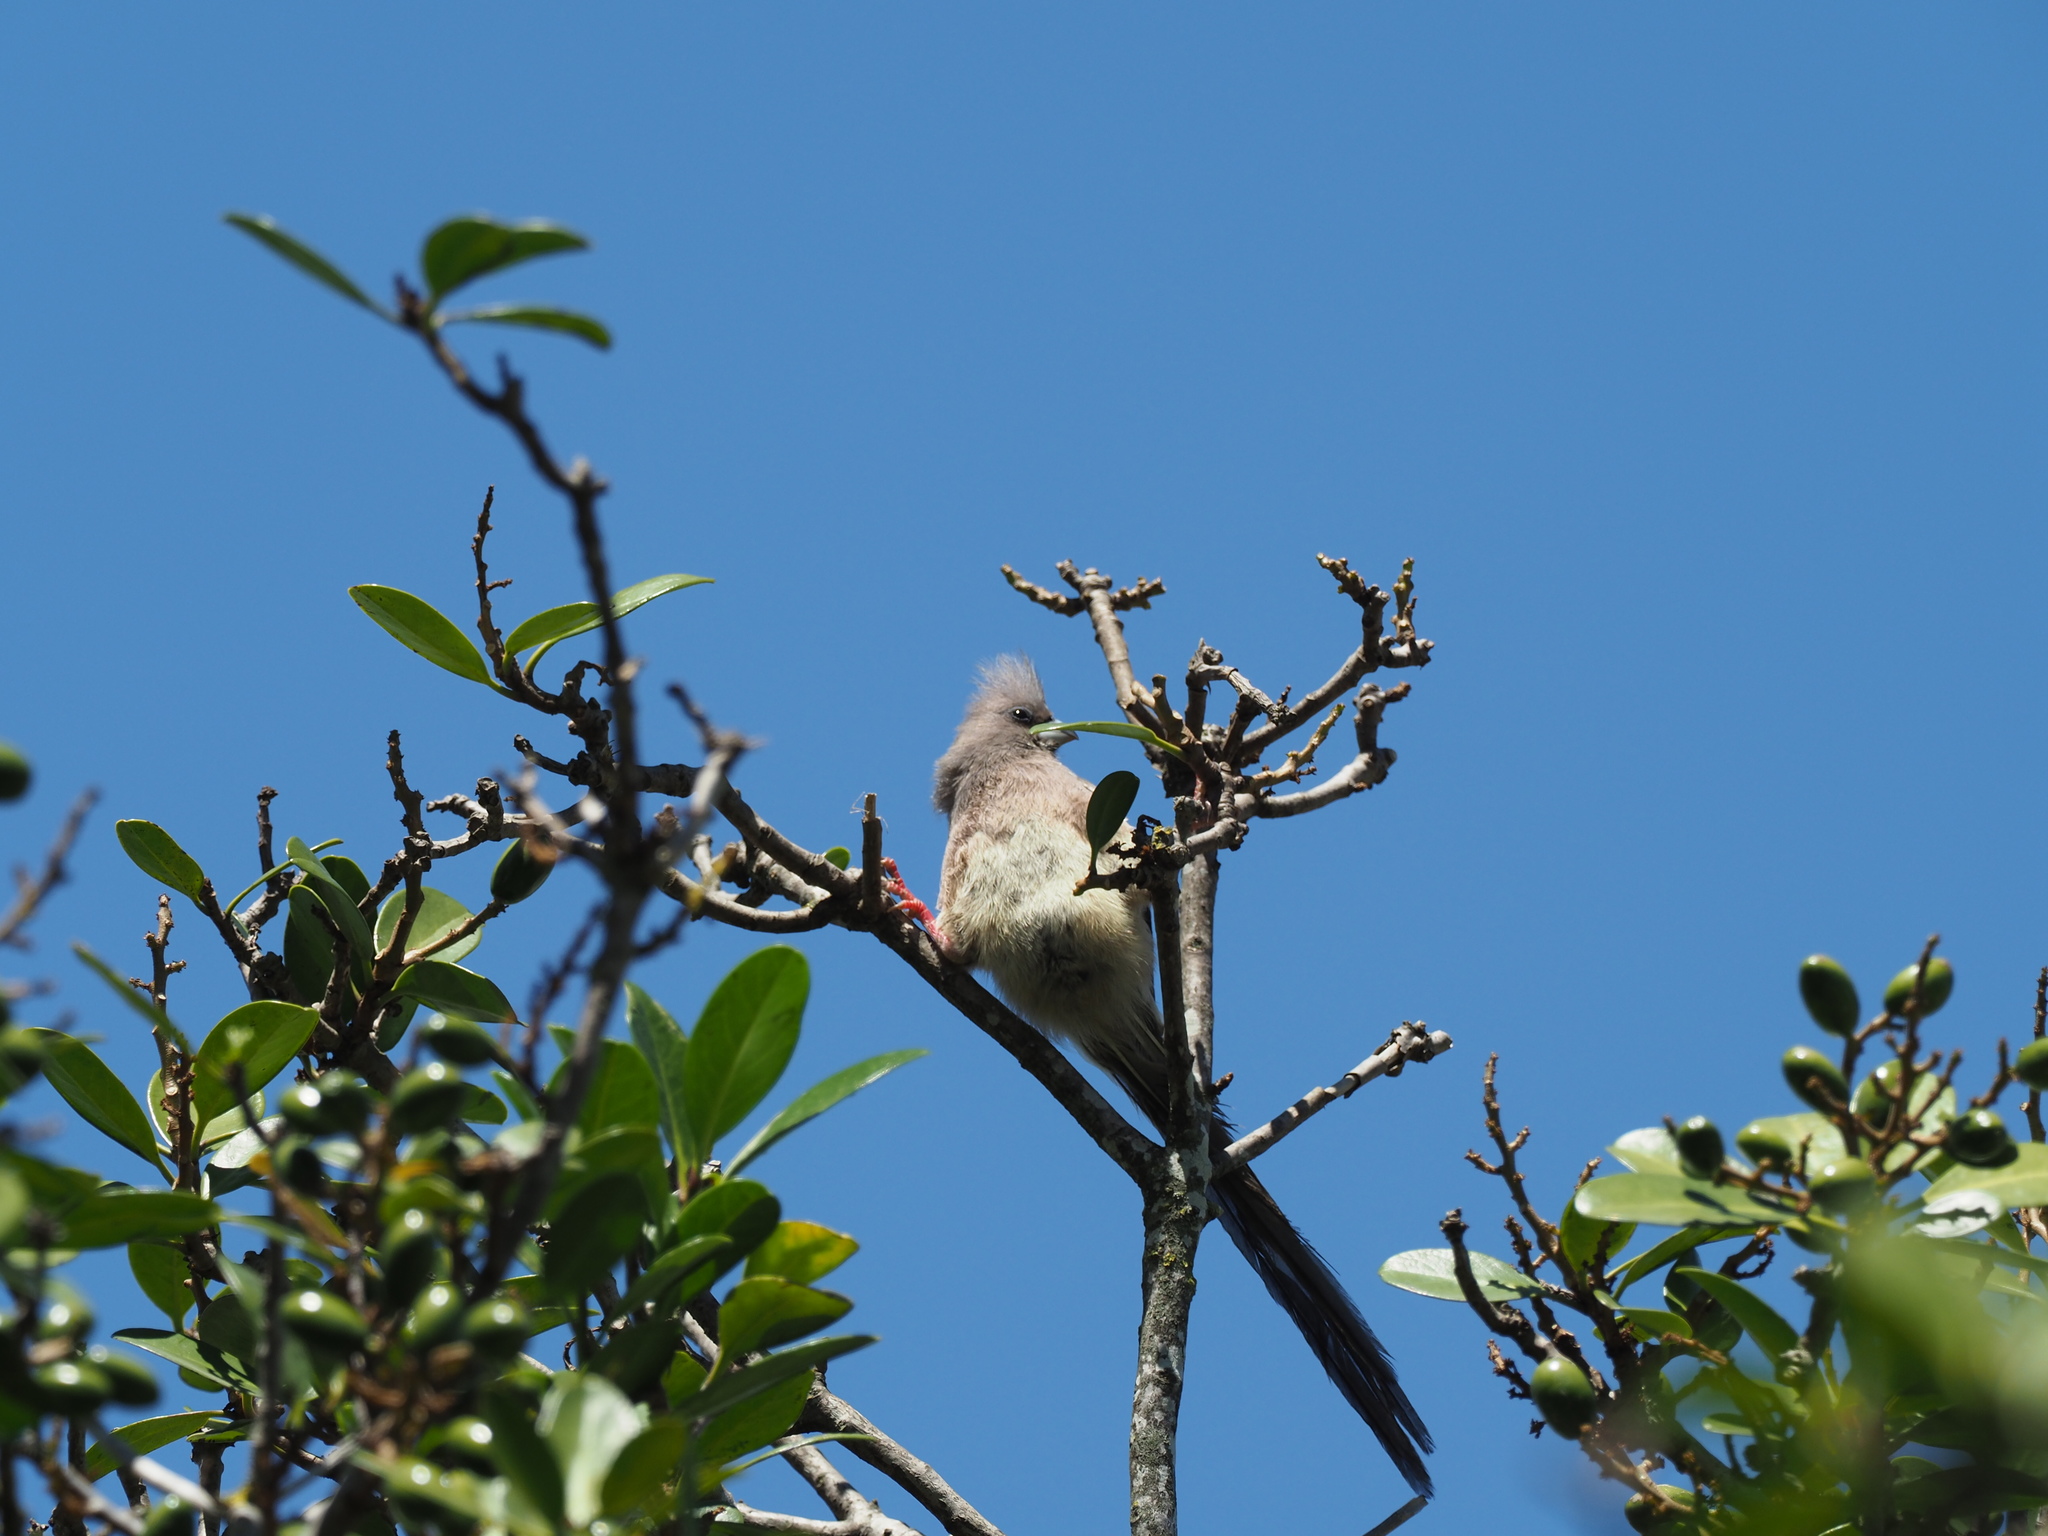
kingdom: Animalia
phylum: Chordata
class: Aves
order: Coliiformes
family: Coliidae
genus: Colius
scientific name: Colius colius
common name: White-backed mousebird
